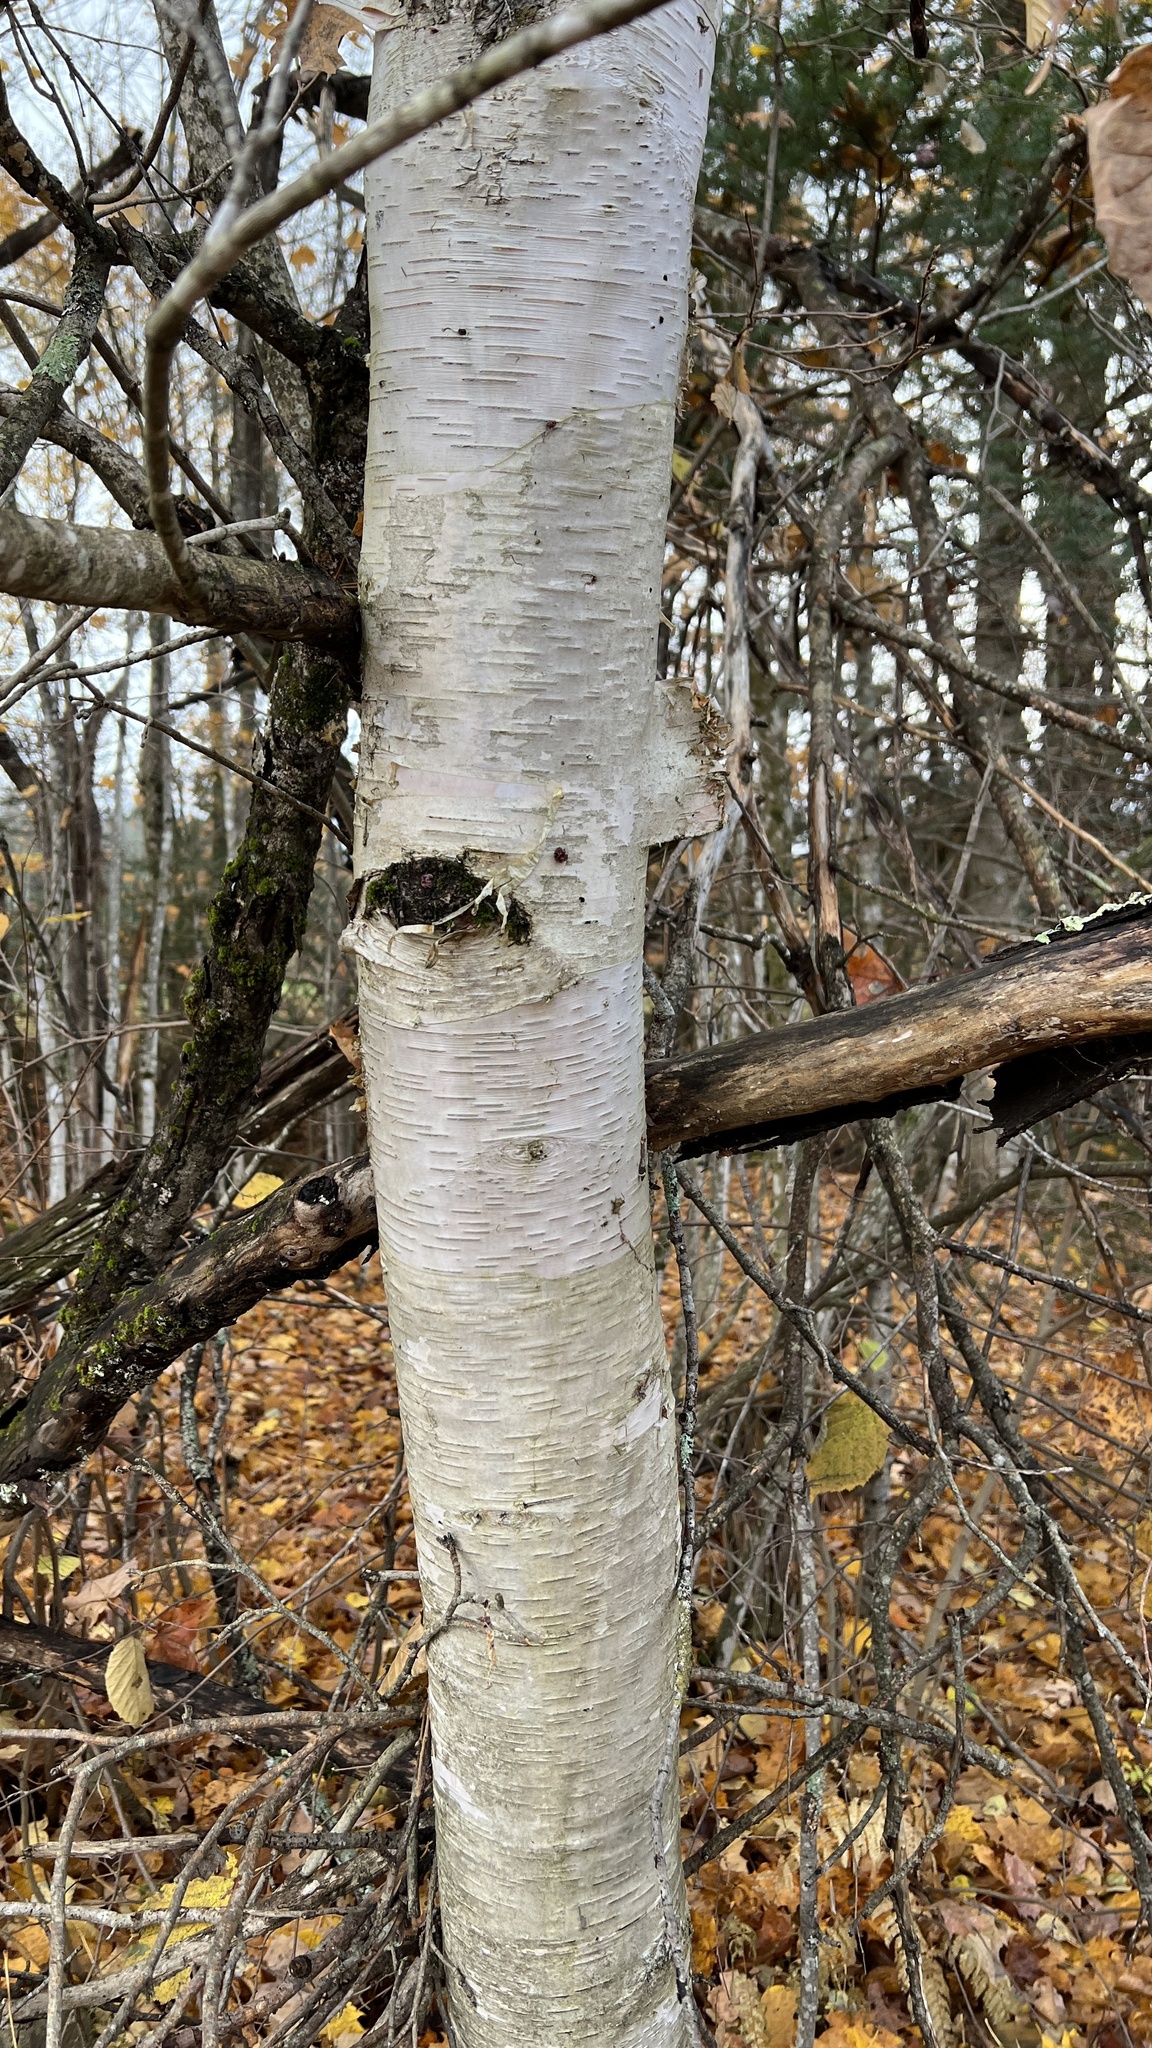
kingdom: Plantae
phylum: Tracheophyta
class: Magnoliopsida
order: Fagales
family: Betulaceae
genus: Betula
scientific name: Betula papyrifera
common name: Paper birch
